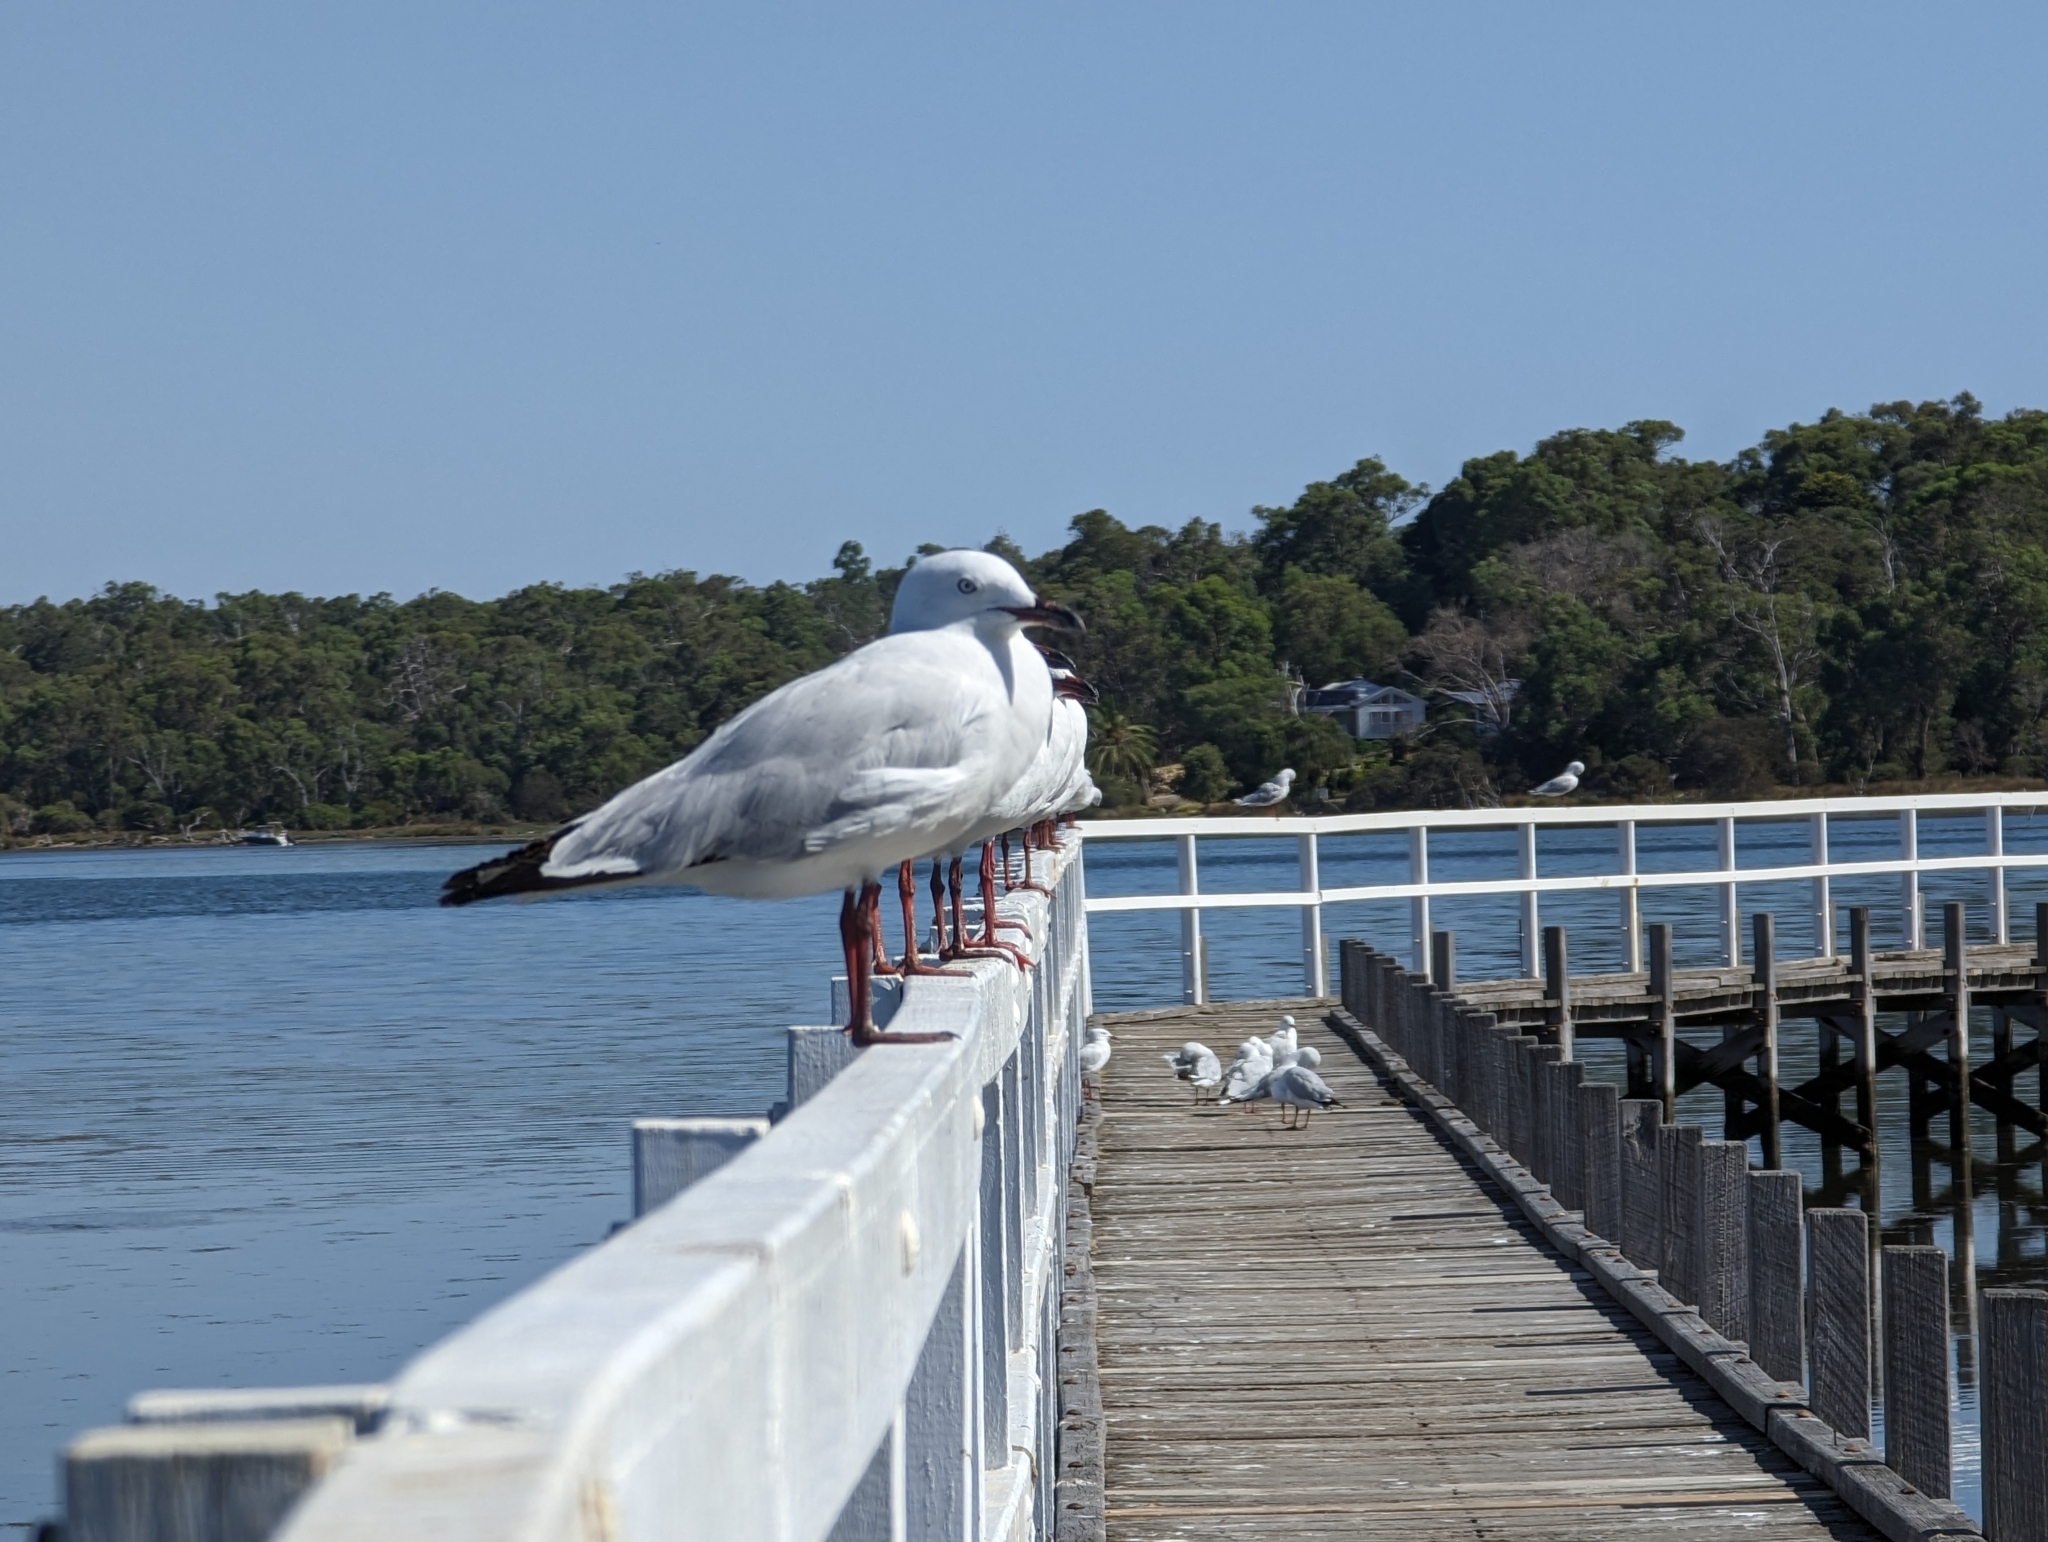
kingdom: Animalia
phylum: Chordata
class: Aves
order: Charadriiformes
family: Laridae
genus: Chroicocephalus
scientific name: Chroicocephalus novaehollandiae
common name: Silver gull
